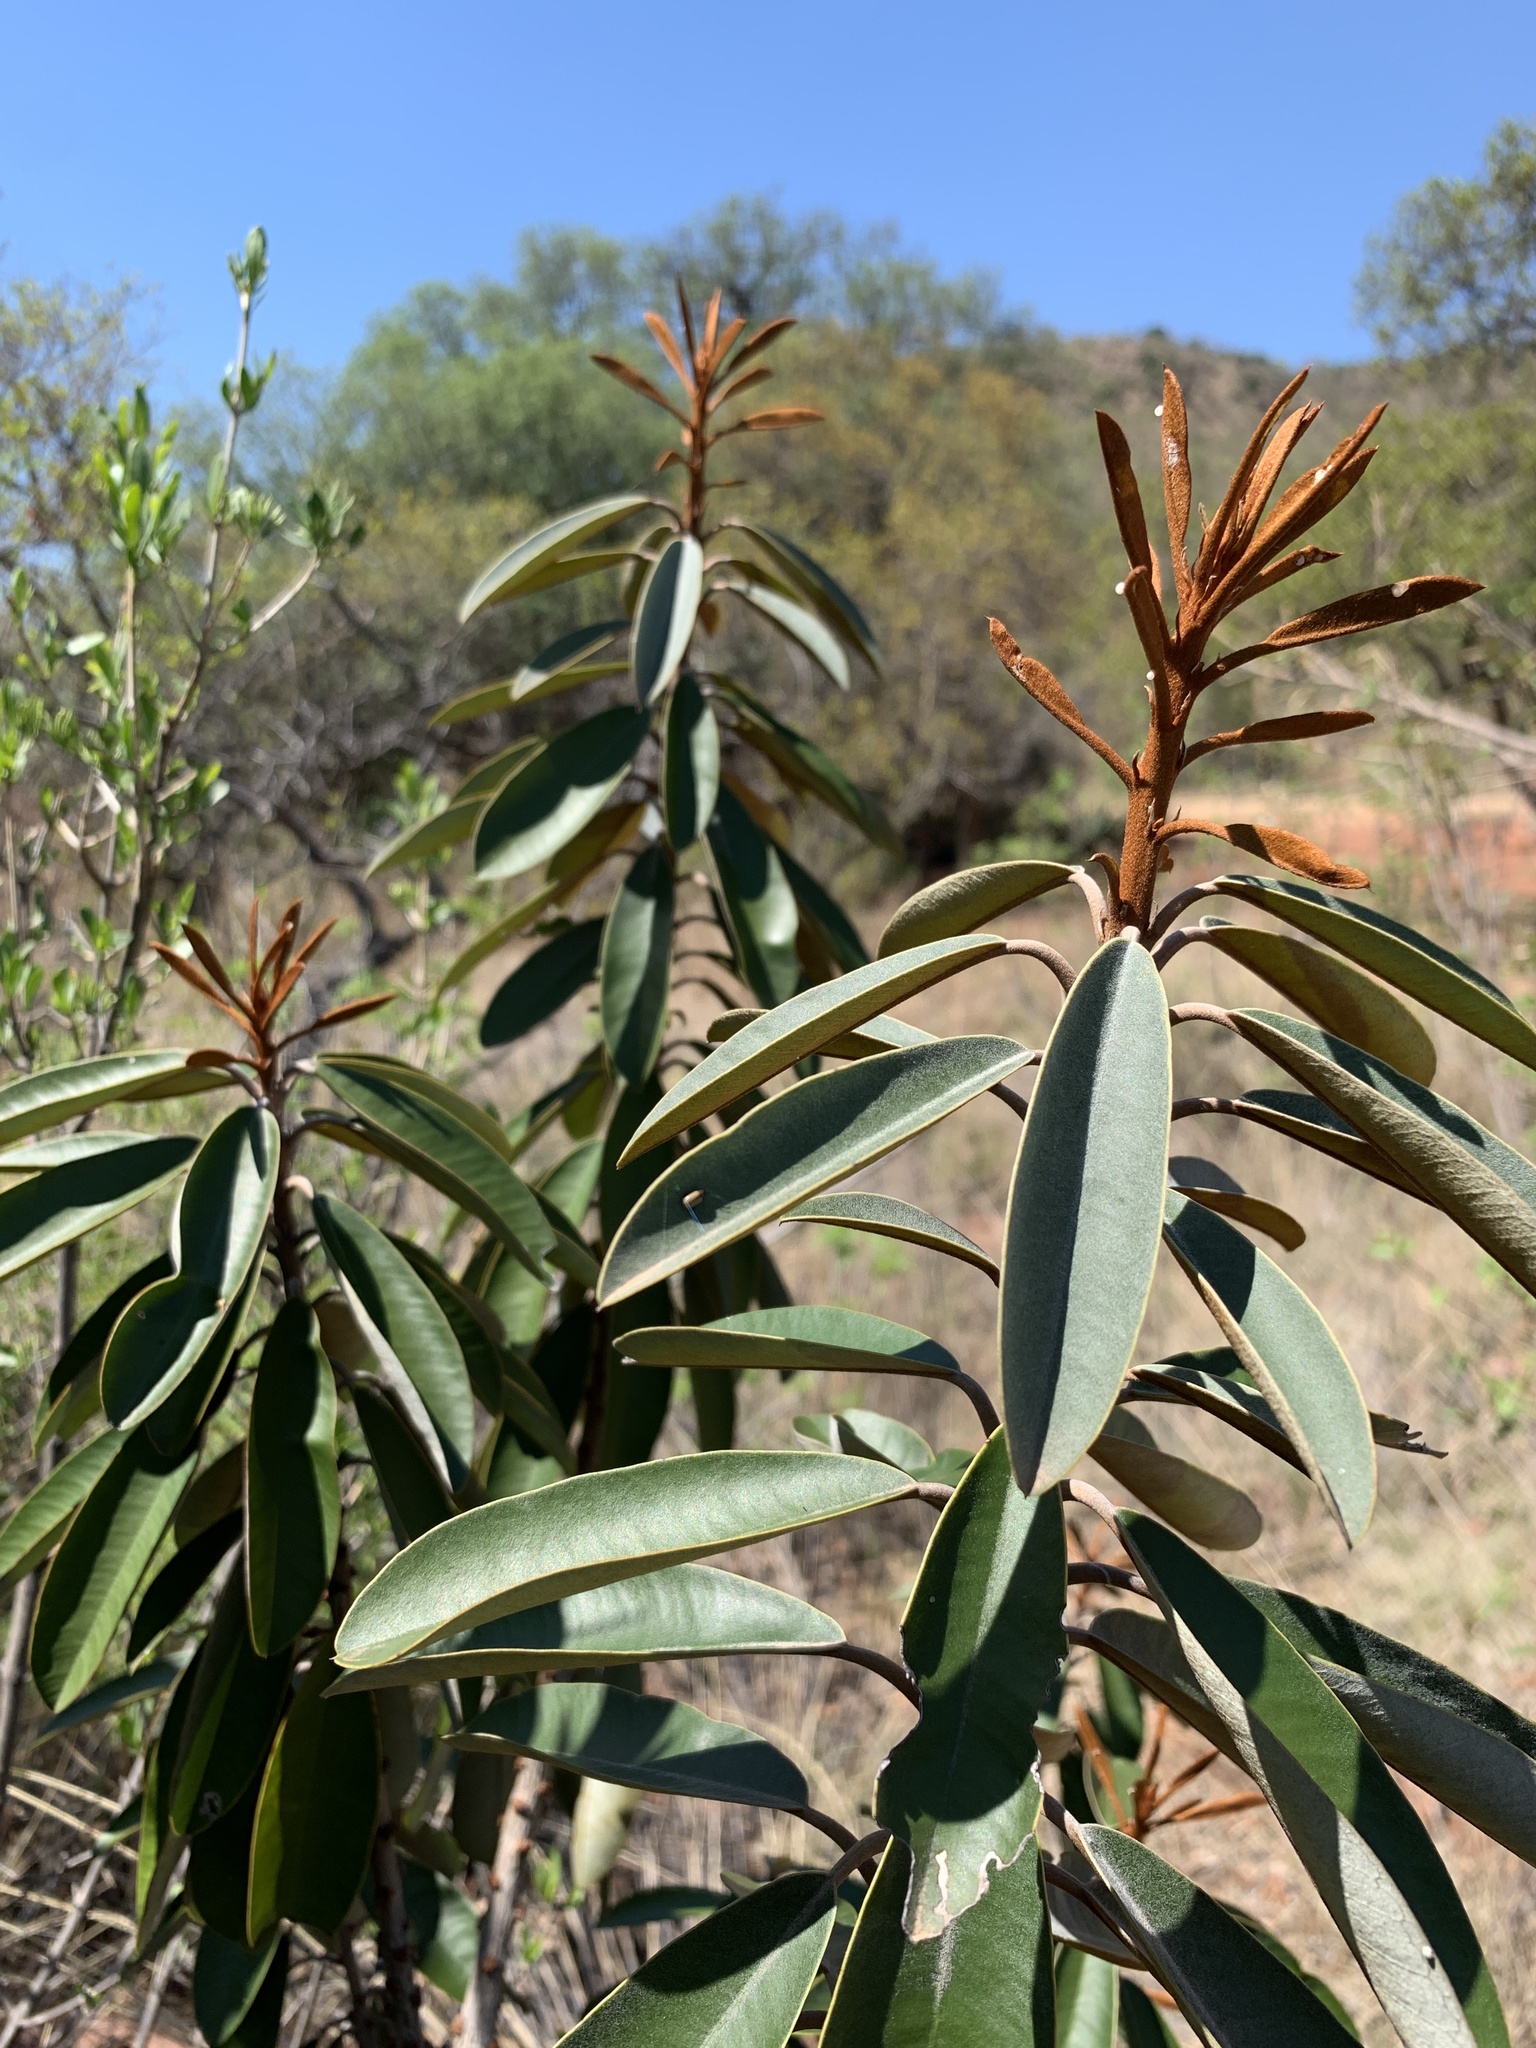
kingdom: Plantae
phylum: Tracheophyta
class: Magnoliopsida
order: Ericales
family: Sapotaceae
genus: Englerophytum
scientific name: Englerophytum magalismontanum
